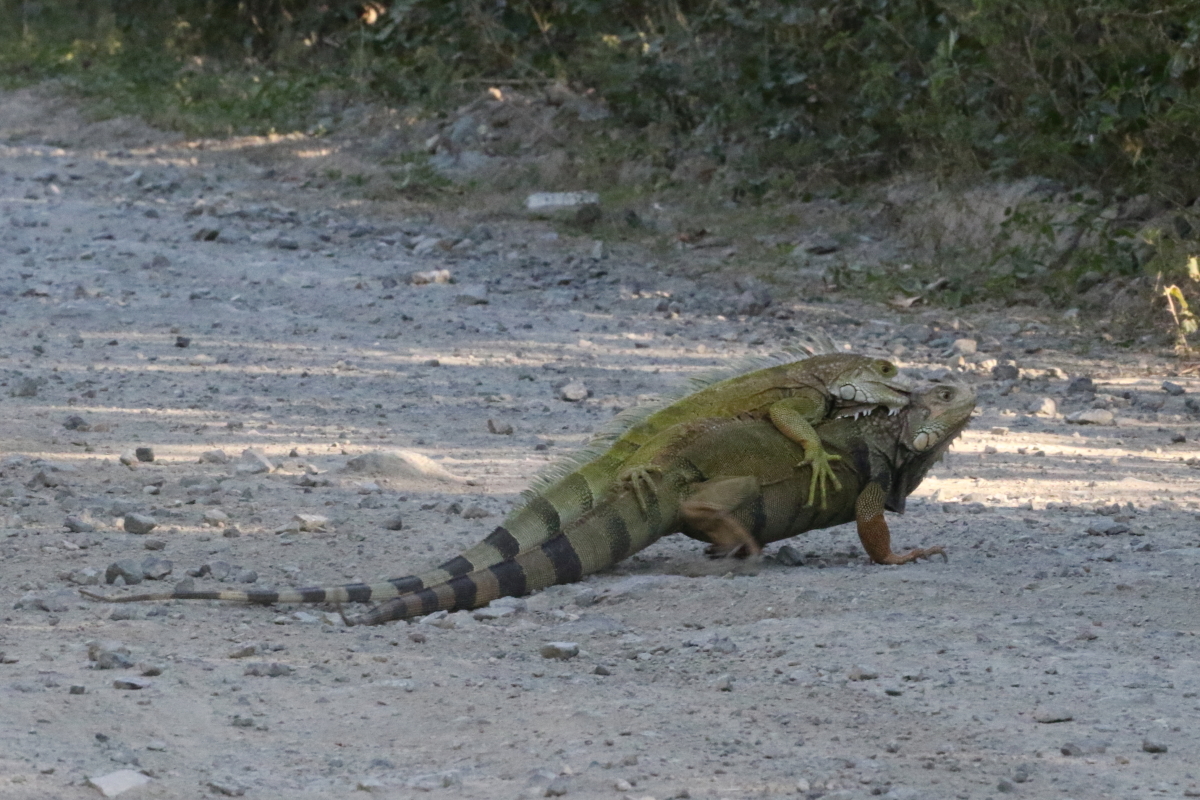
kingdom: Animalia
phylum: Chordata
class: Squamata
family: Iguanidae
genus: Iguana
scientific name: Iguana iguana
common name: Green iguana
